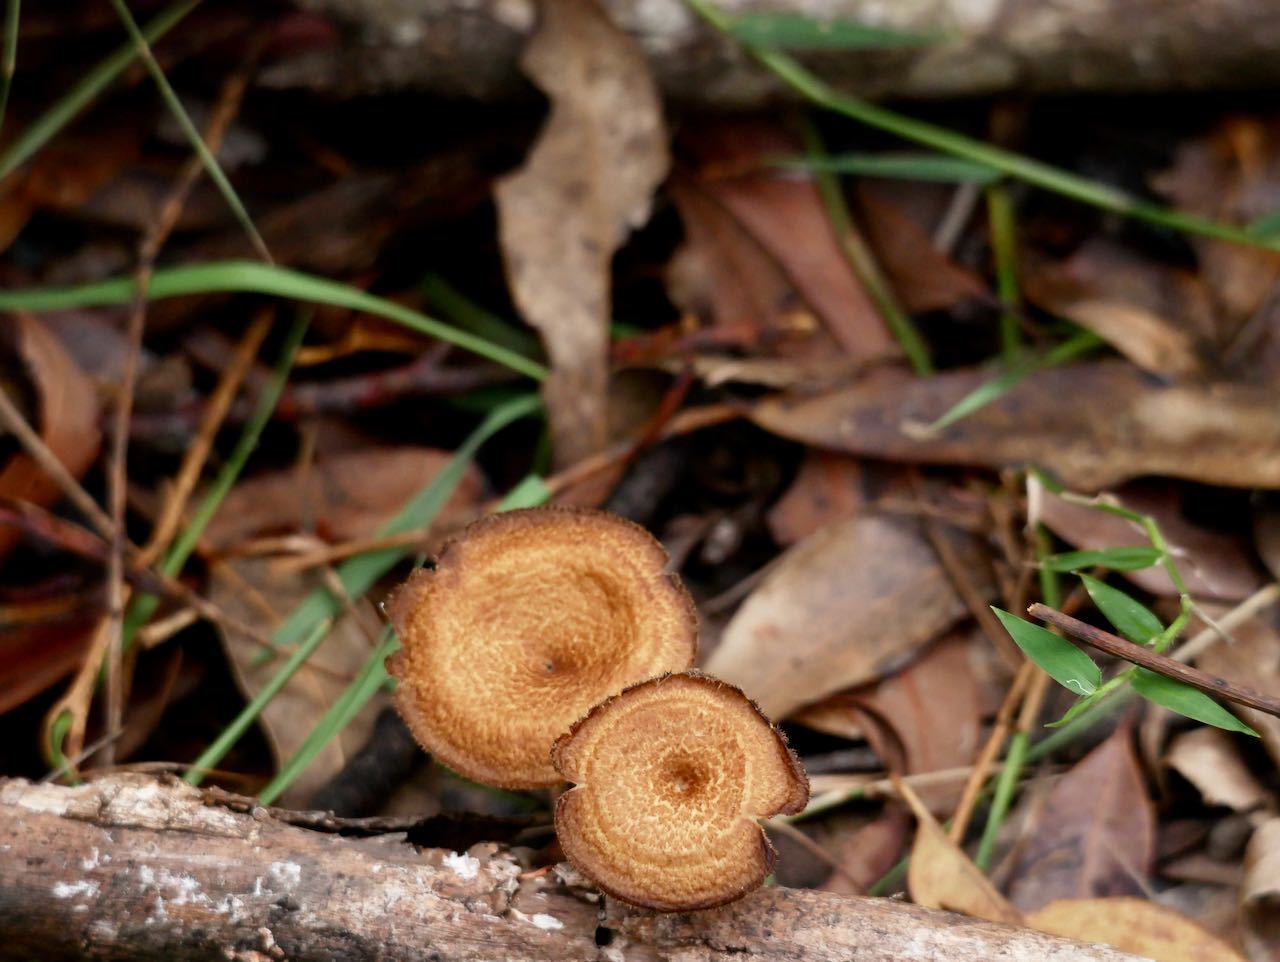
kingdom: Fungi
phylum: Basidiomycota
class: Agaricomycetes
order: Polyporales
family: Polyporaceae
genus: Lentinus
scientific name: Lentinus arcularius
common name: Spring polypore
